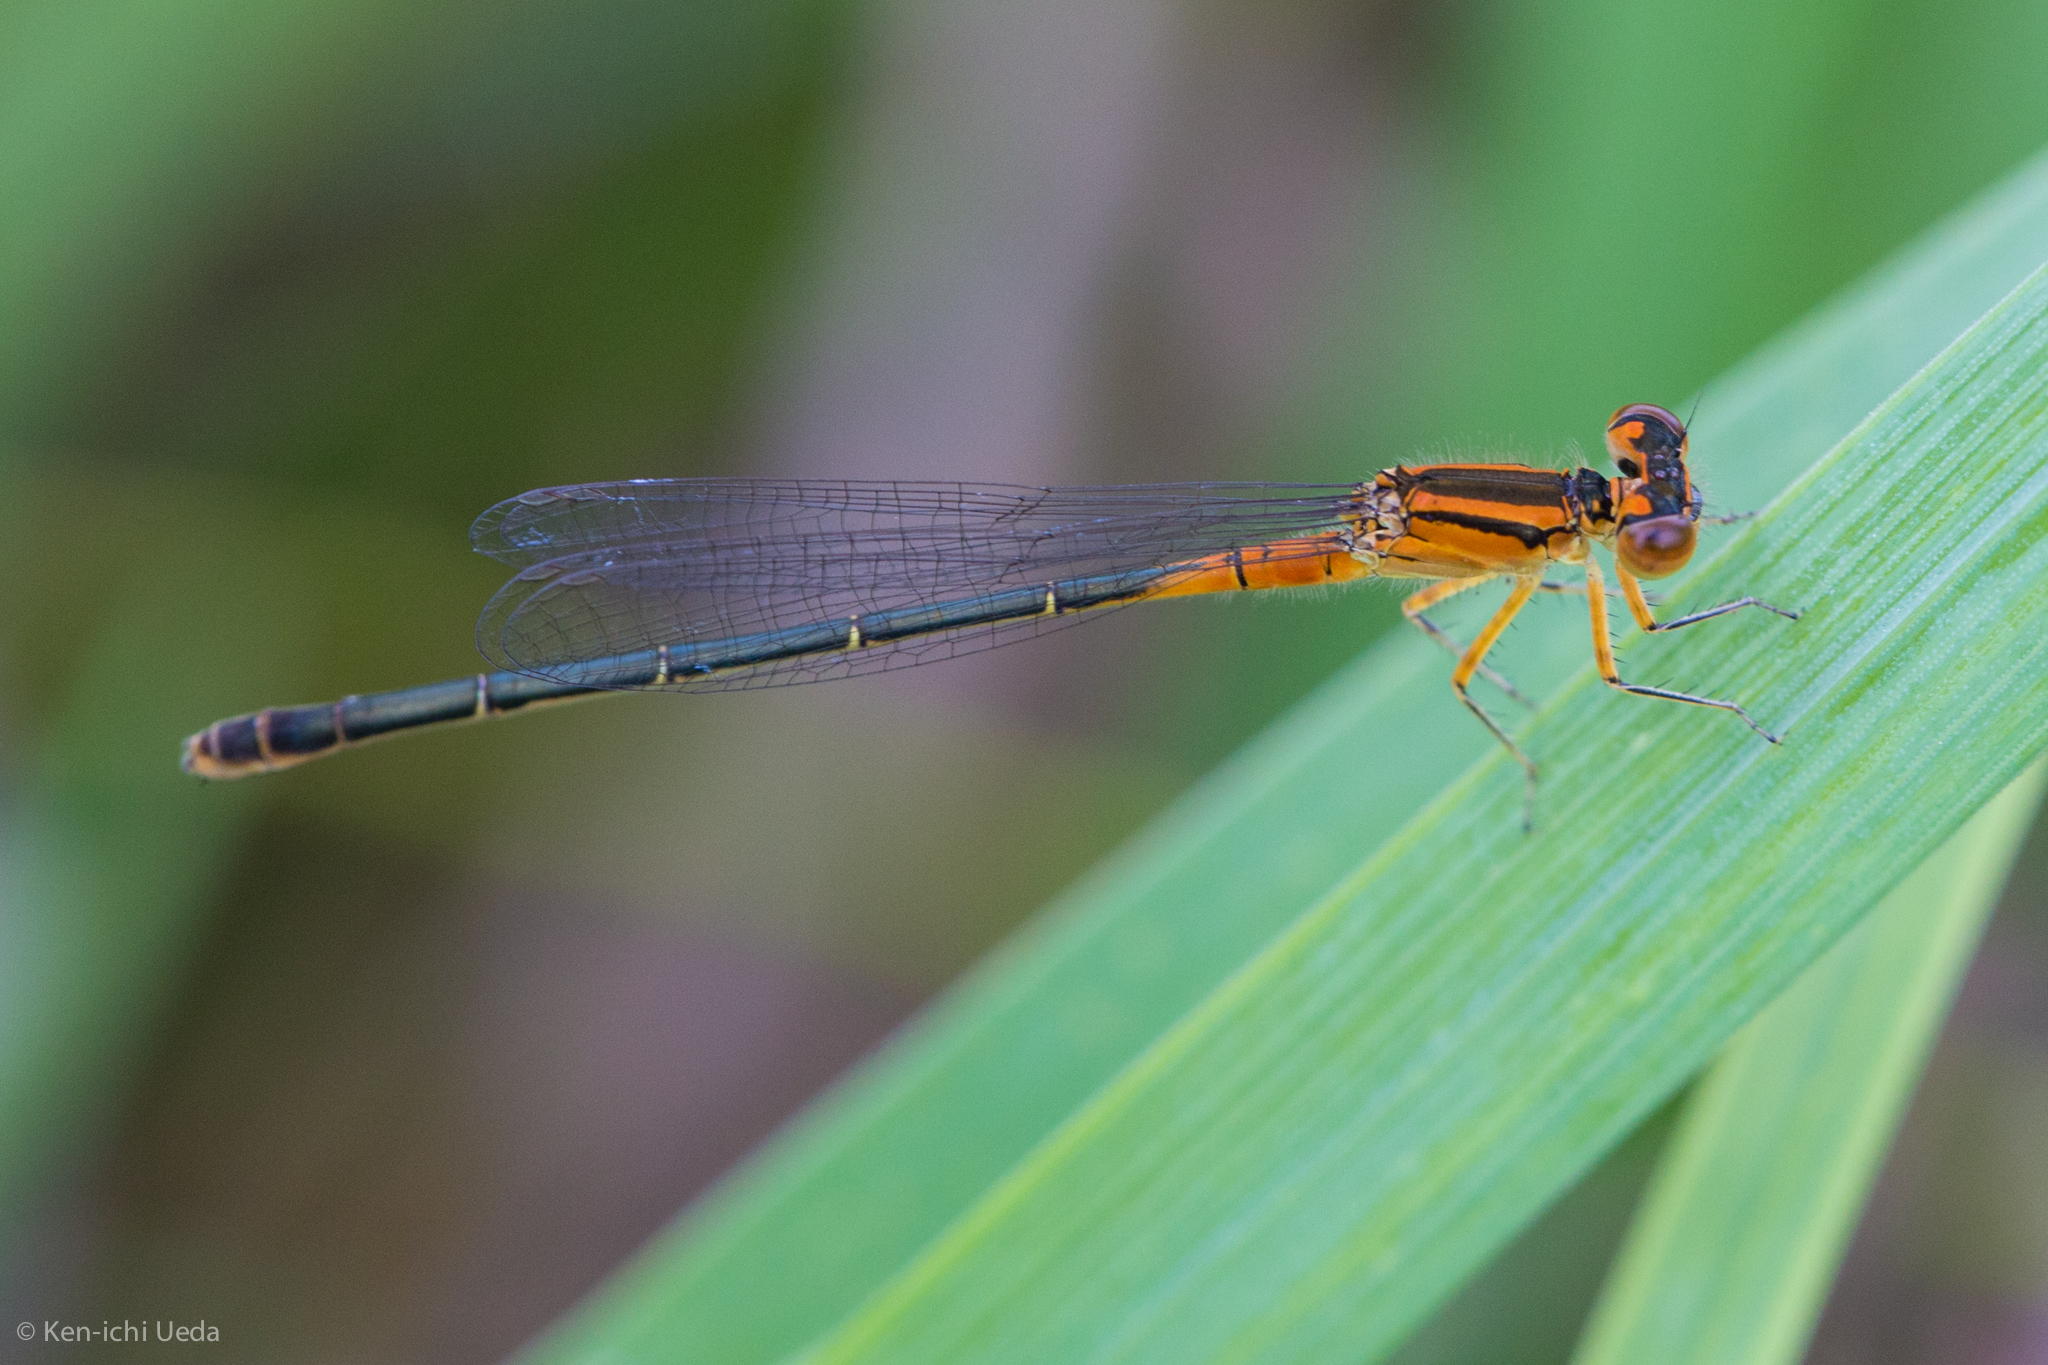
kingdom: Animalia
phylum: Arthropoda
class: Insecta
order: Odonata
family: Coenagrionidae
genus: Ischnura
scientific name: Ischnura verticalis
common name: Eastern forktail
